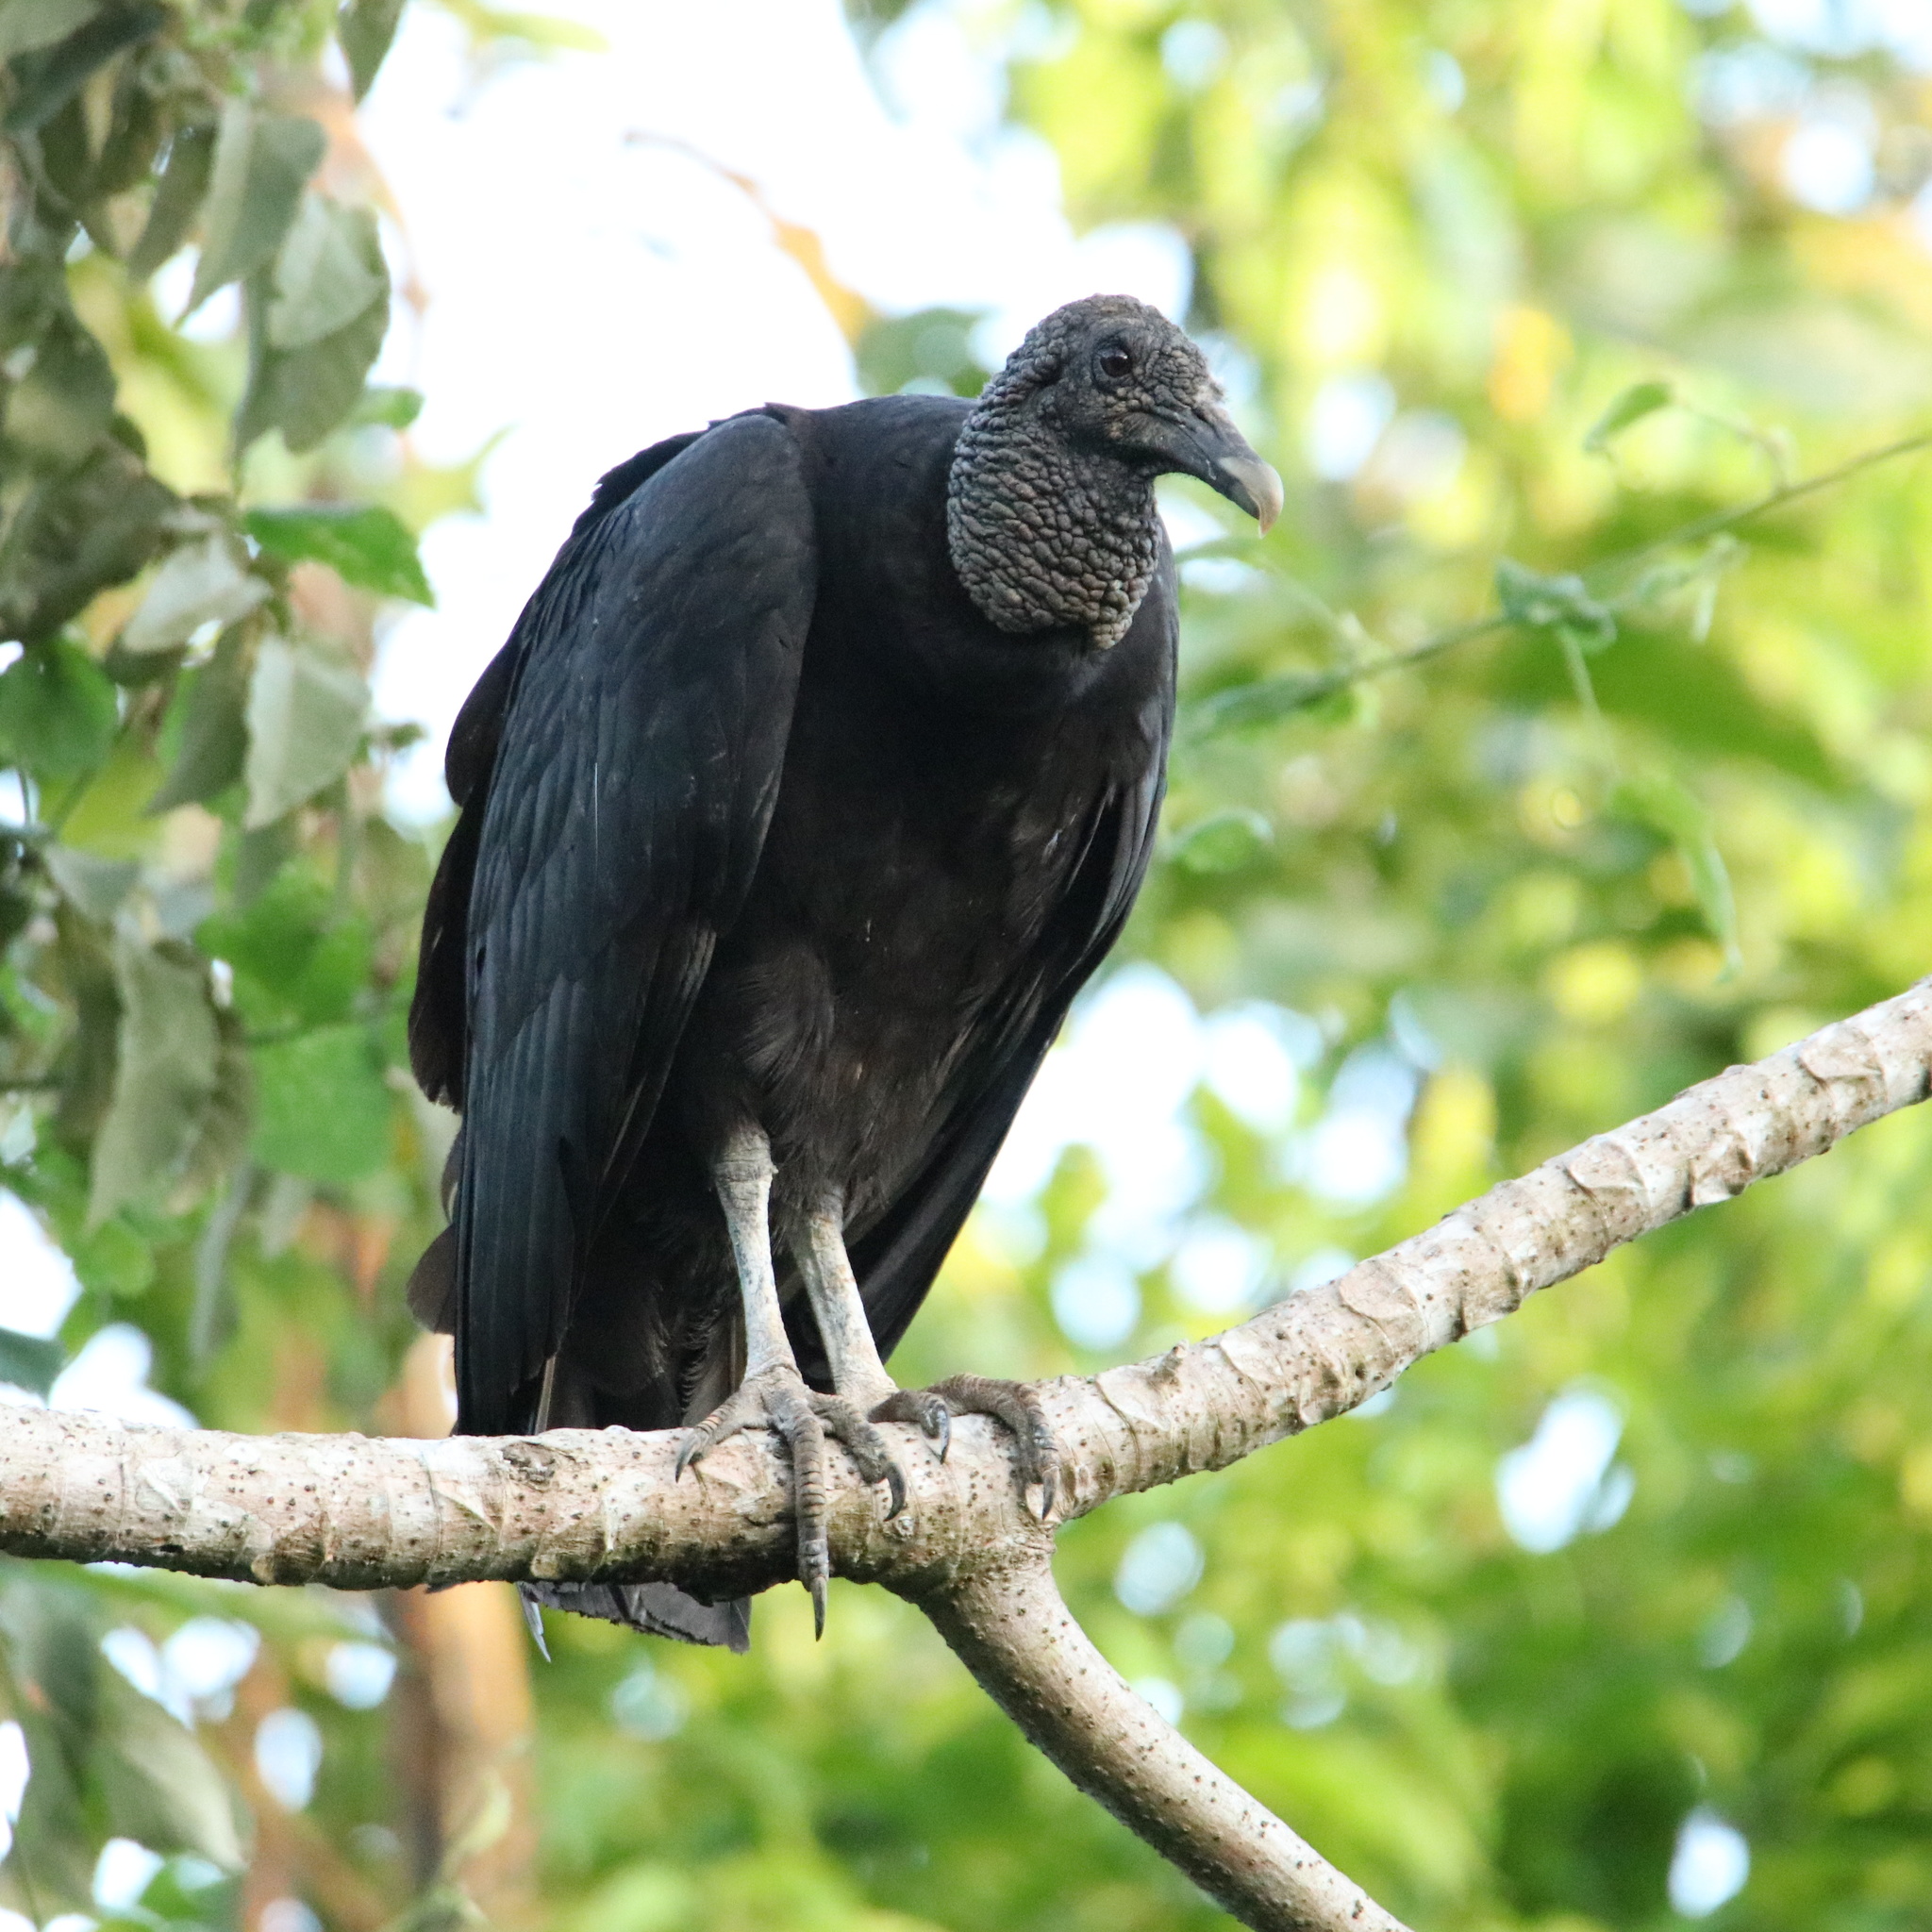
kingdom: Animalia
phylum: Chordata
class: Aves
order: Accipitriformes
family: Cathartidae
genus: Coragyps
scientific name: Coragyps atratus
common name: Black vulture
